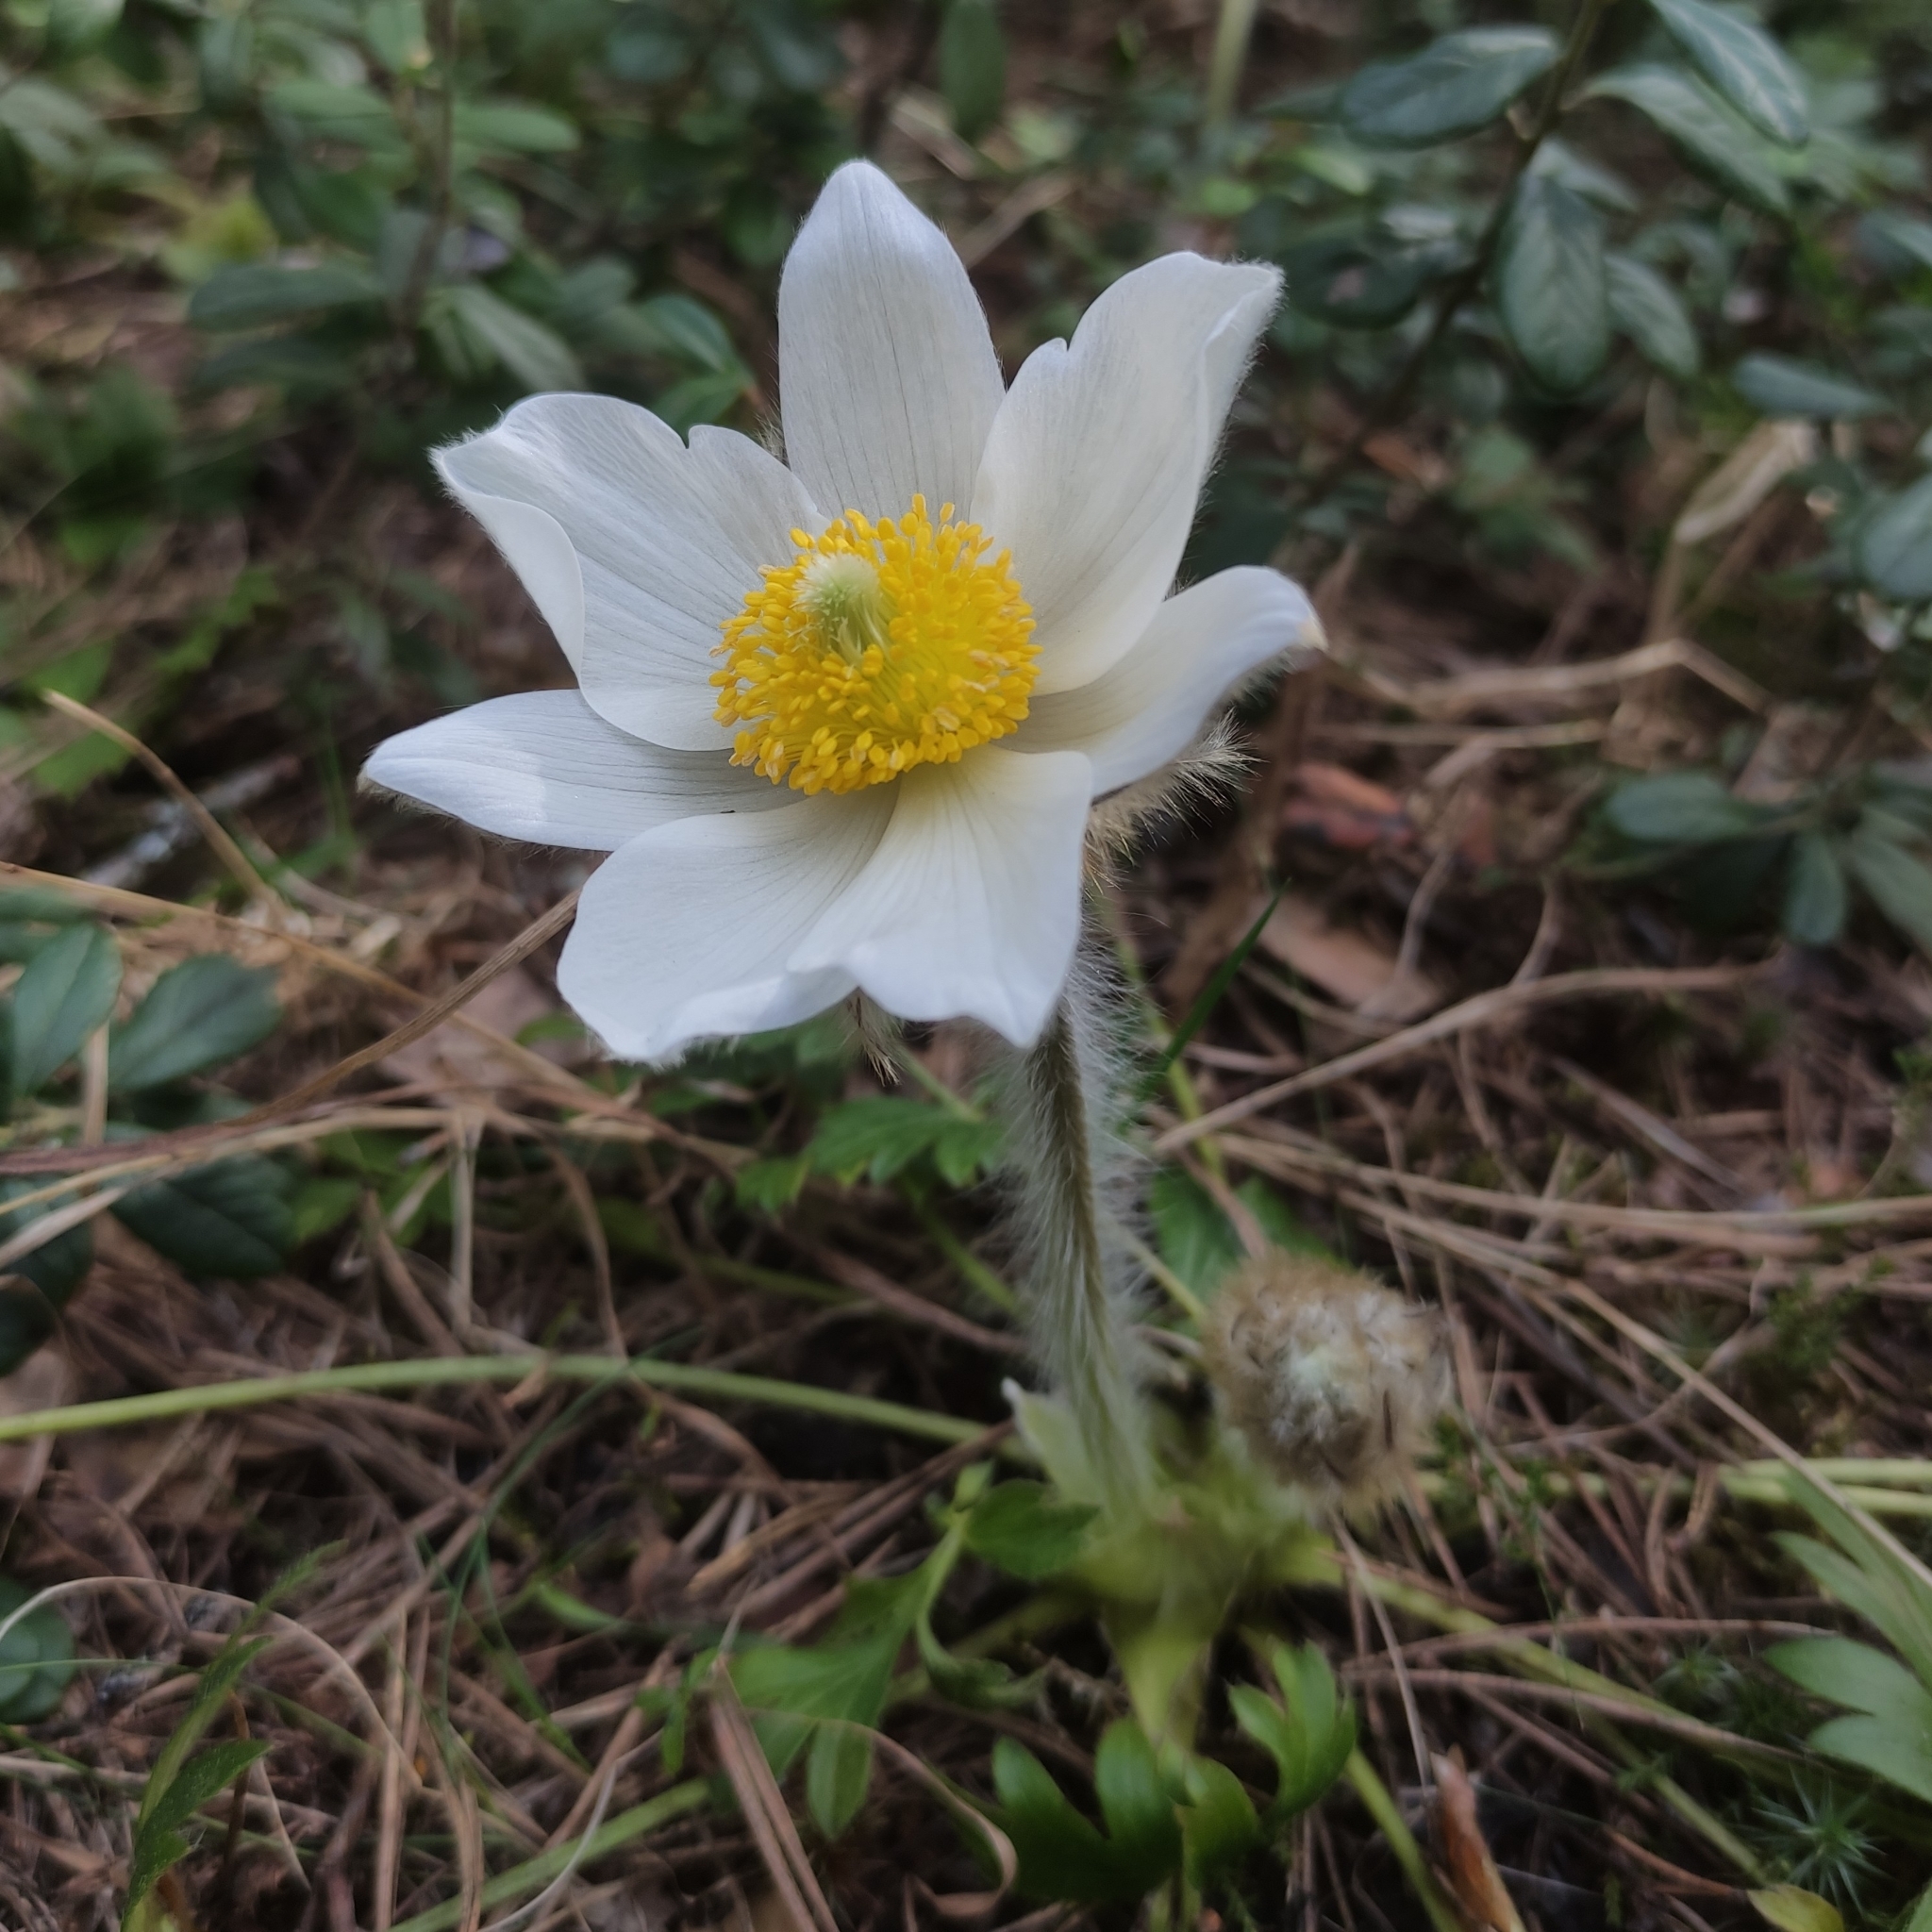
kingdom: Plantae
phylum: Tracheophyta
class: Magnoliopsida
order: Ranunculales
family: Ranunculaceae
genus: Pulsatilla
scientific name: Pulsatilla vernalis
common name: Spring pasque flower
